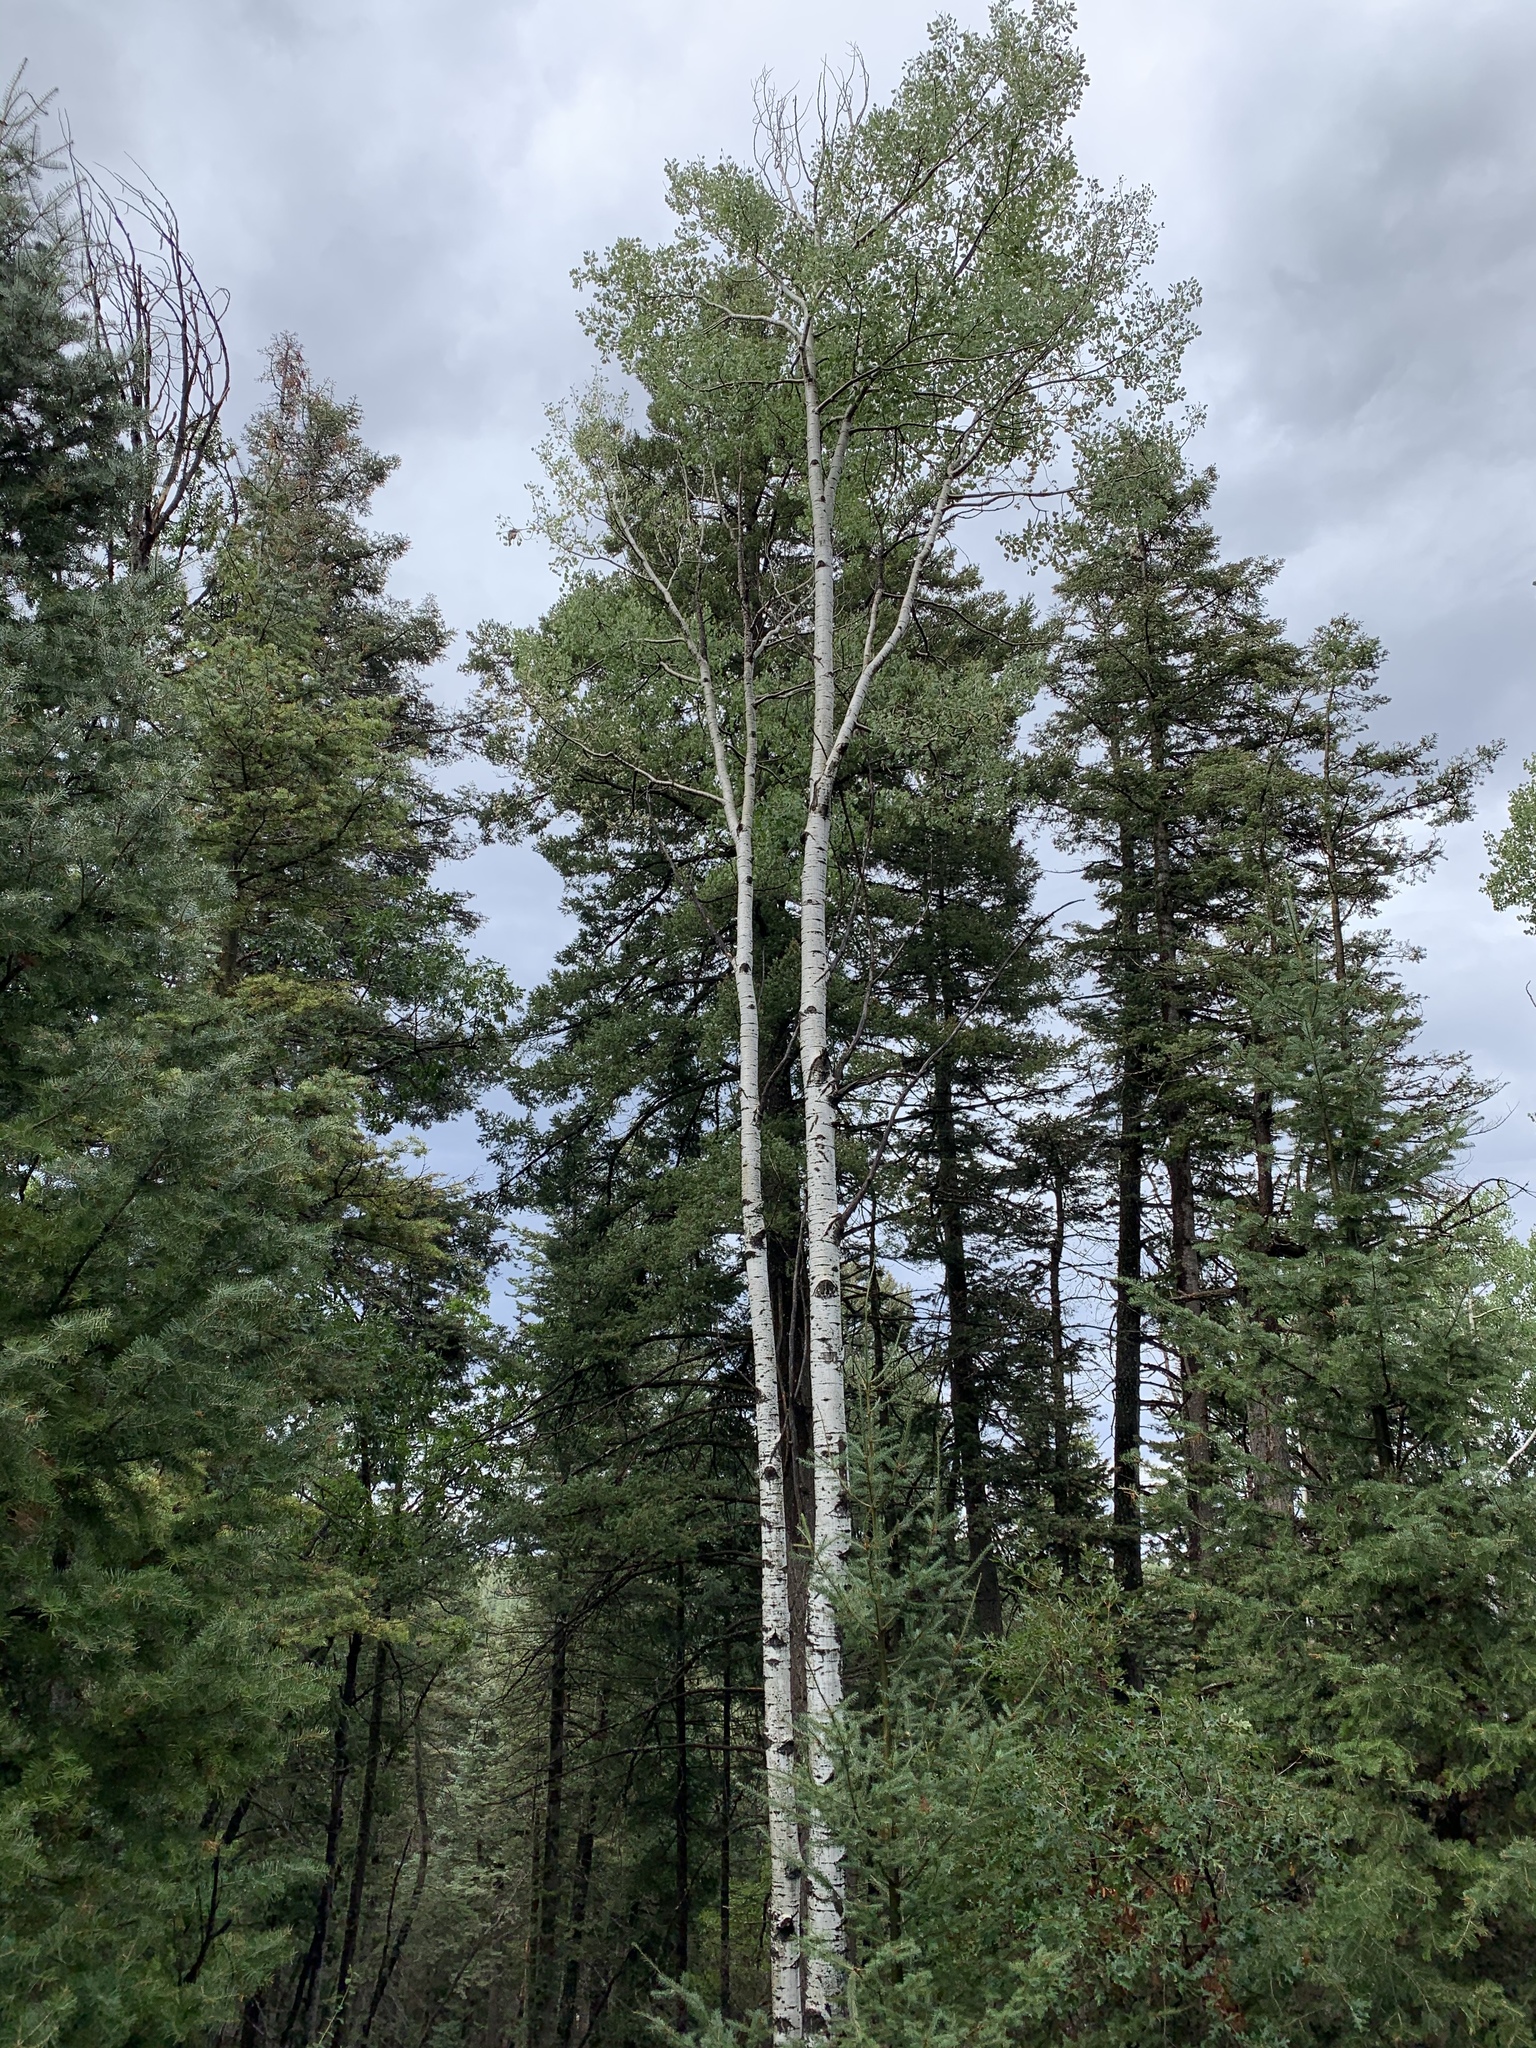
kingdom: Plantae
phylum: Tracheophyta
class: Magnoliopsida
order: Malpighiales
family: Salicaceae
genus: Populus
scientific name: Populus tremuloides
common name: Quaking aspen
